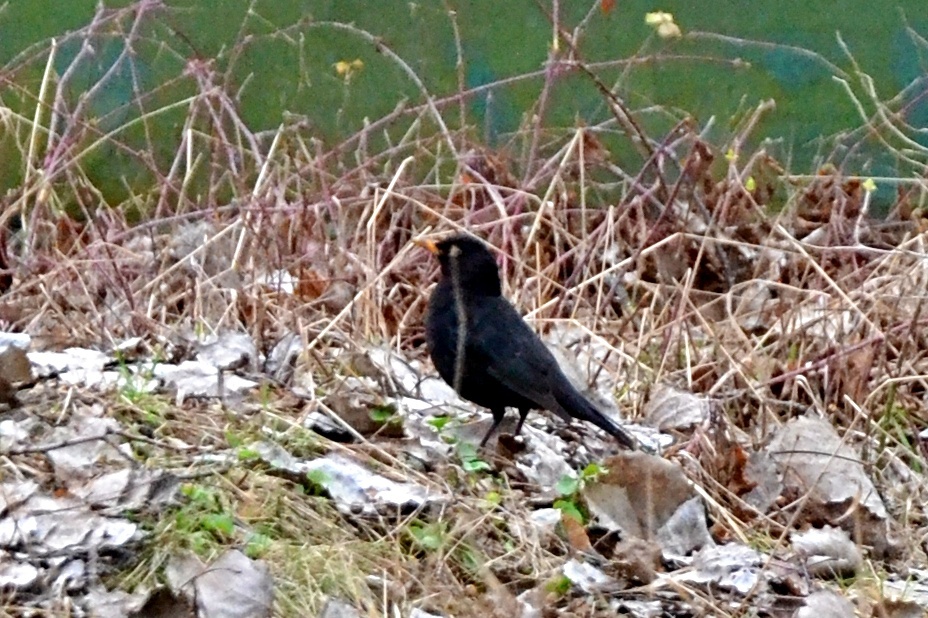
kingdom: Animalia
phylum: Chordata
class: Aves
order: Passeriformes
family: Turdidae
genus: Turdus
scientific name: Turdus merula
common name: Common blackbird
